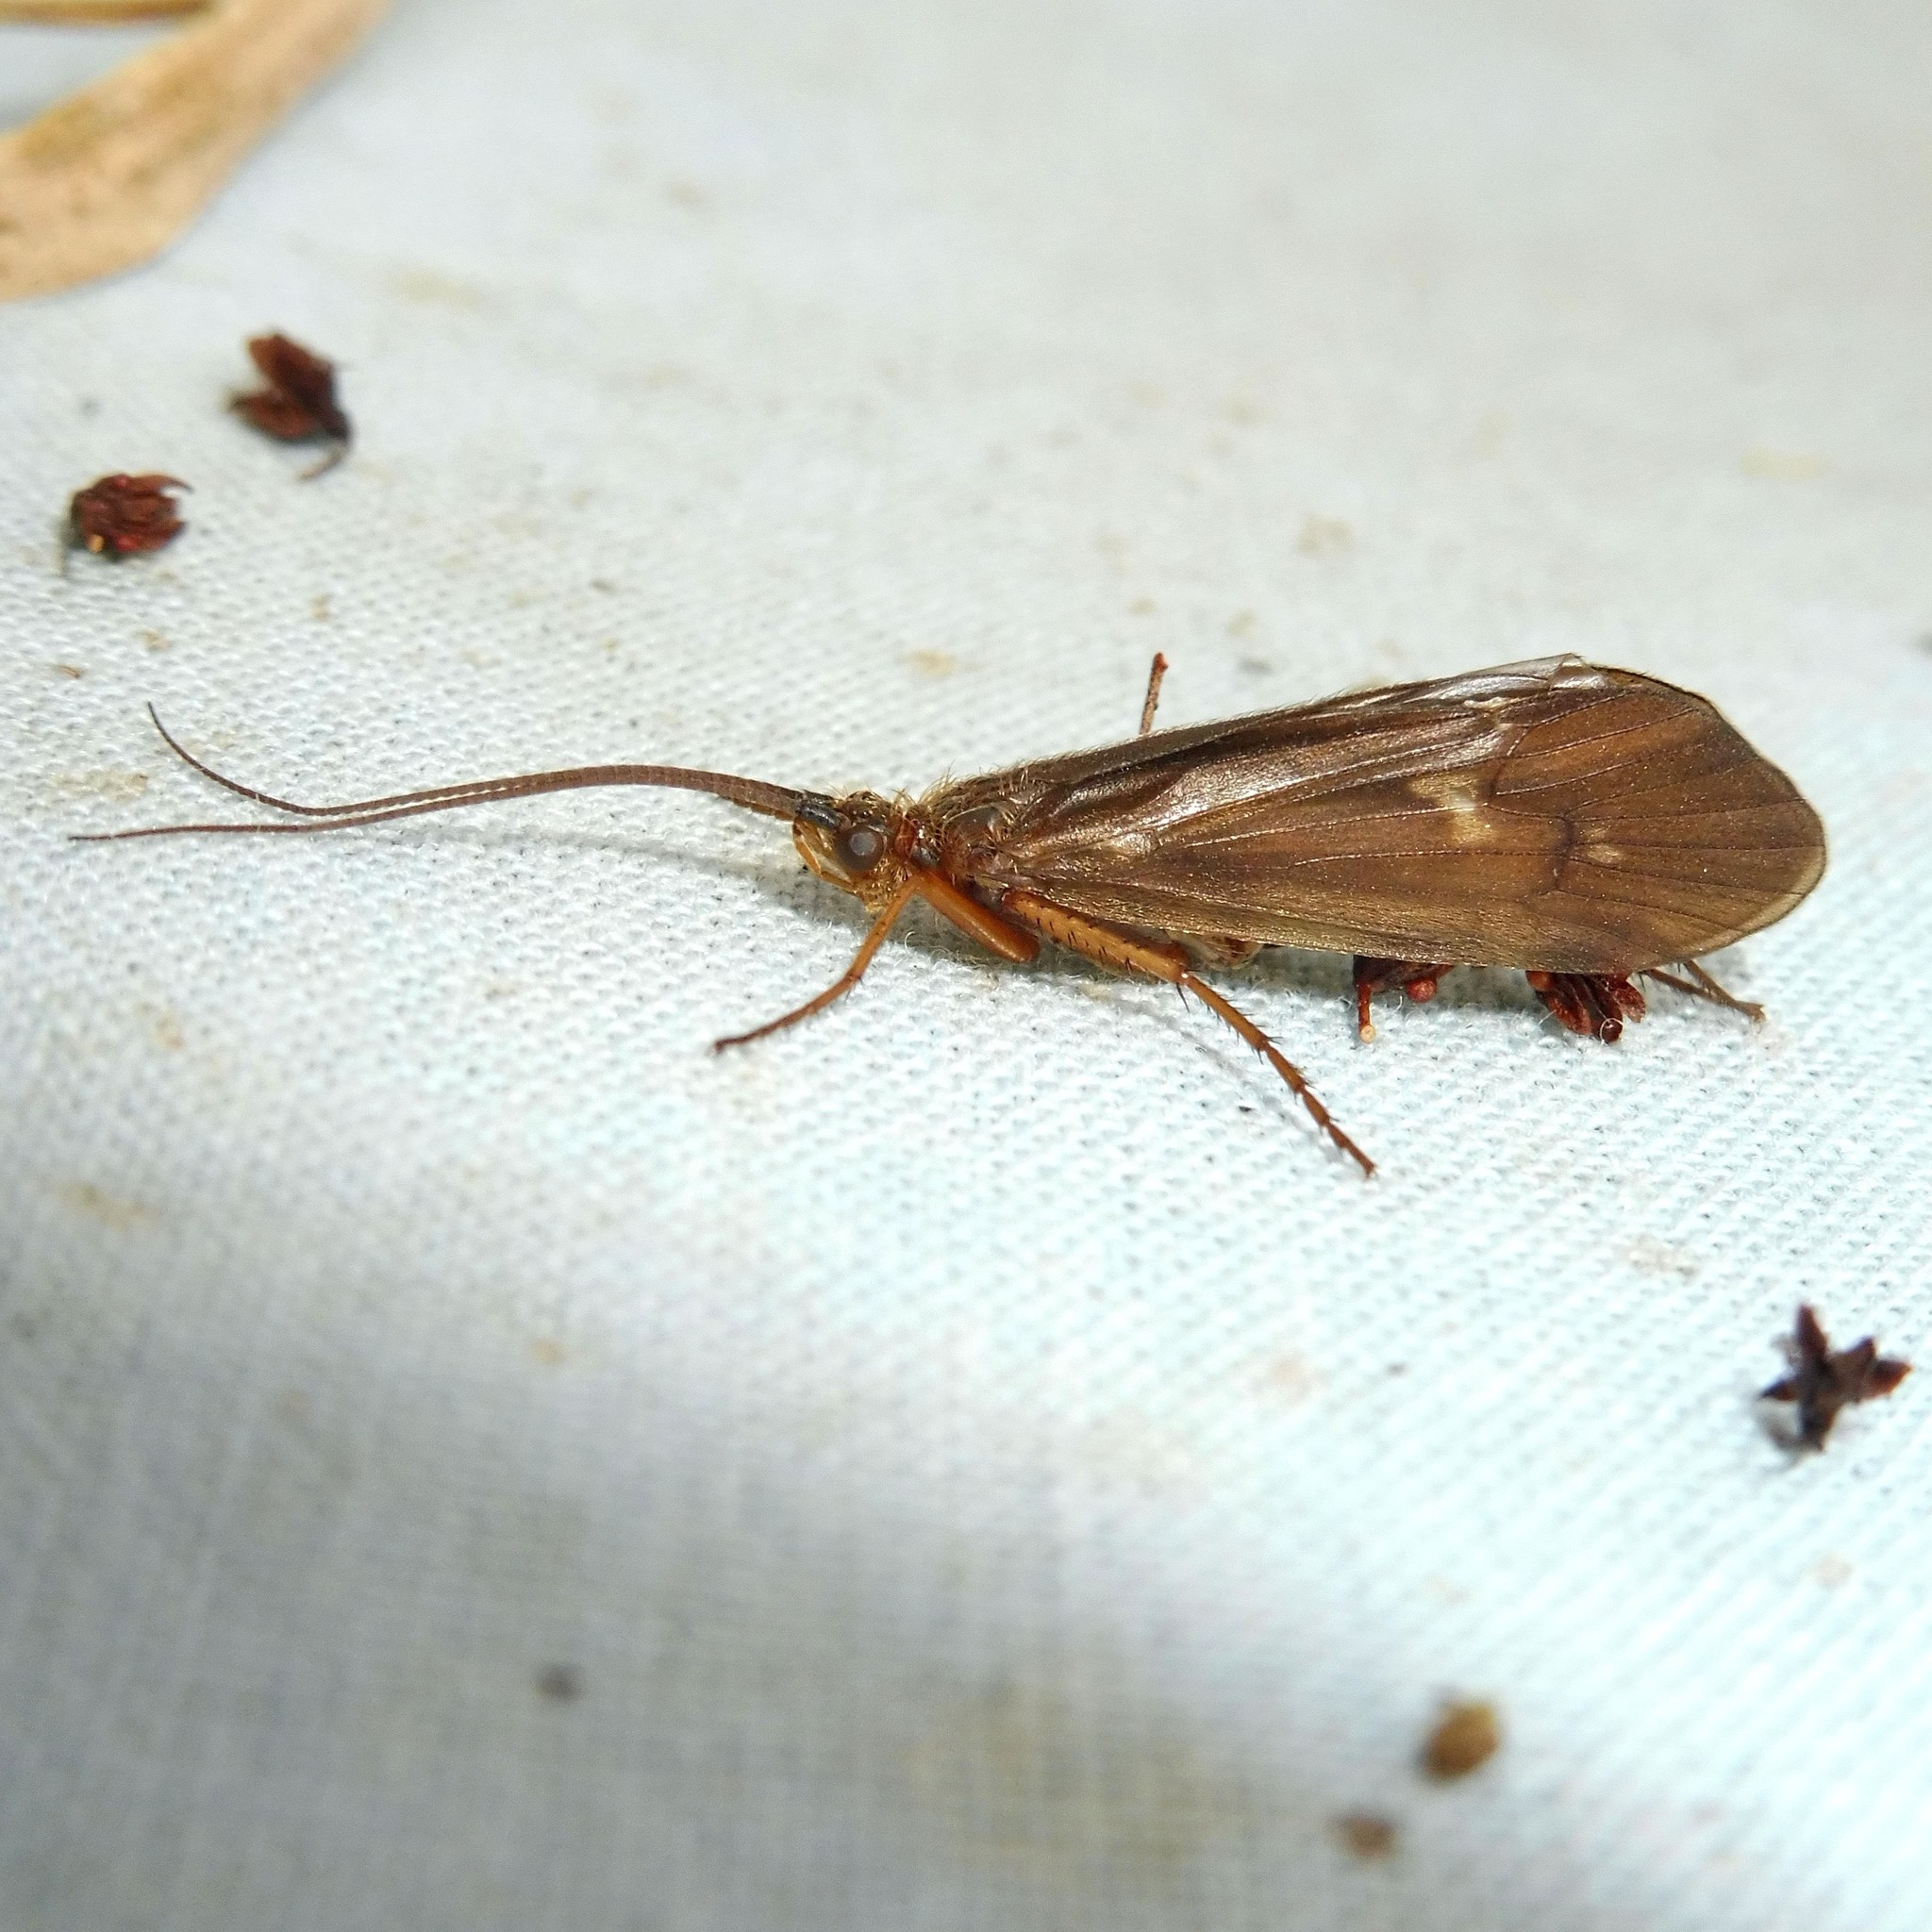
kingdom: Animalia
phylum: Arthropoda
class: Insecta
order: Trichoptera
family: Limnephilidae
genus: Anabolia
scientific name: Anabolia nervosa
